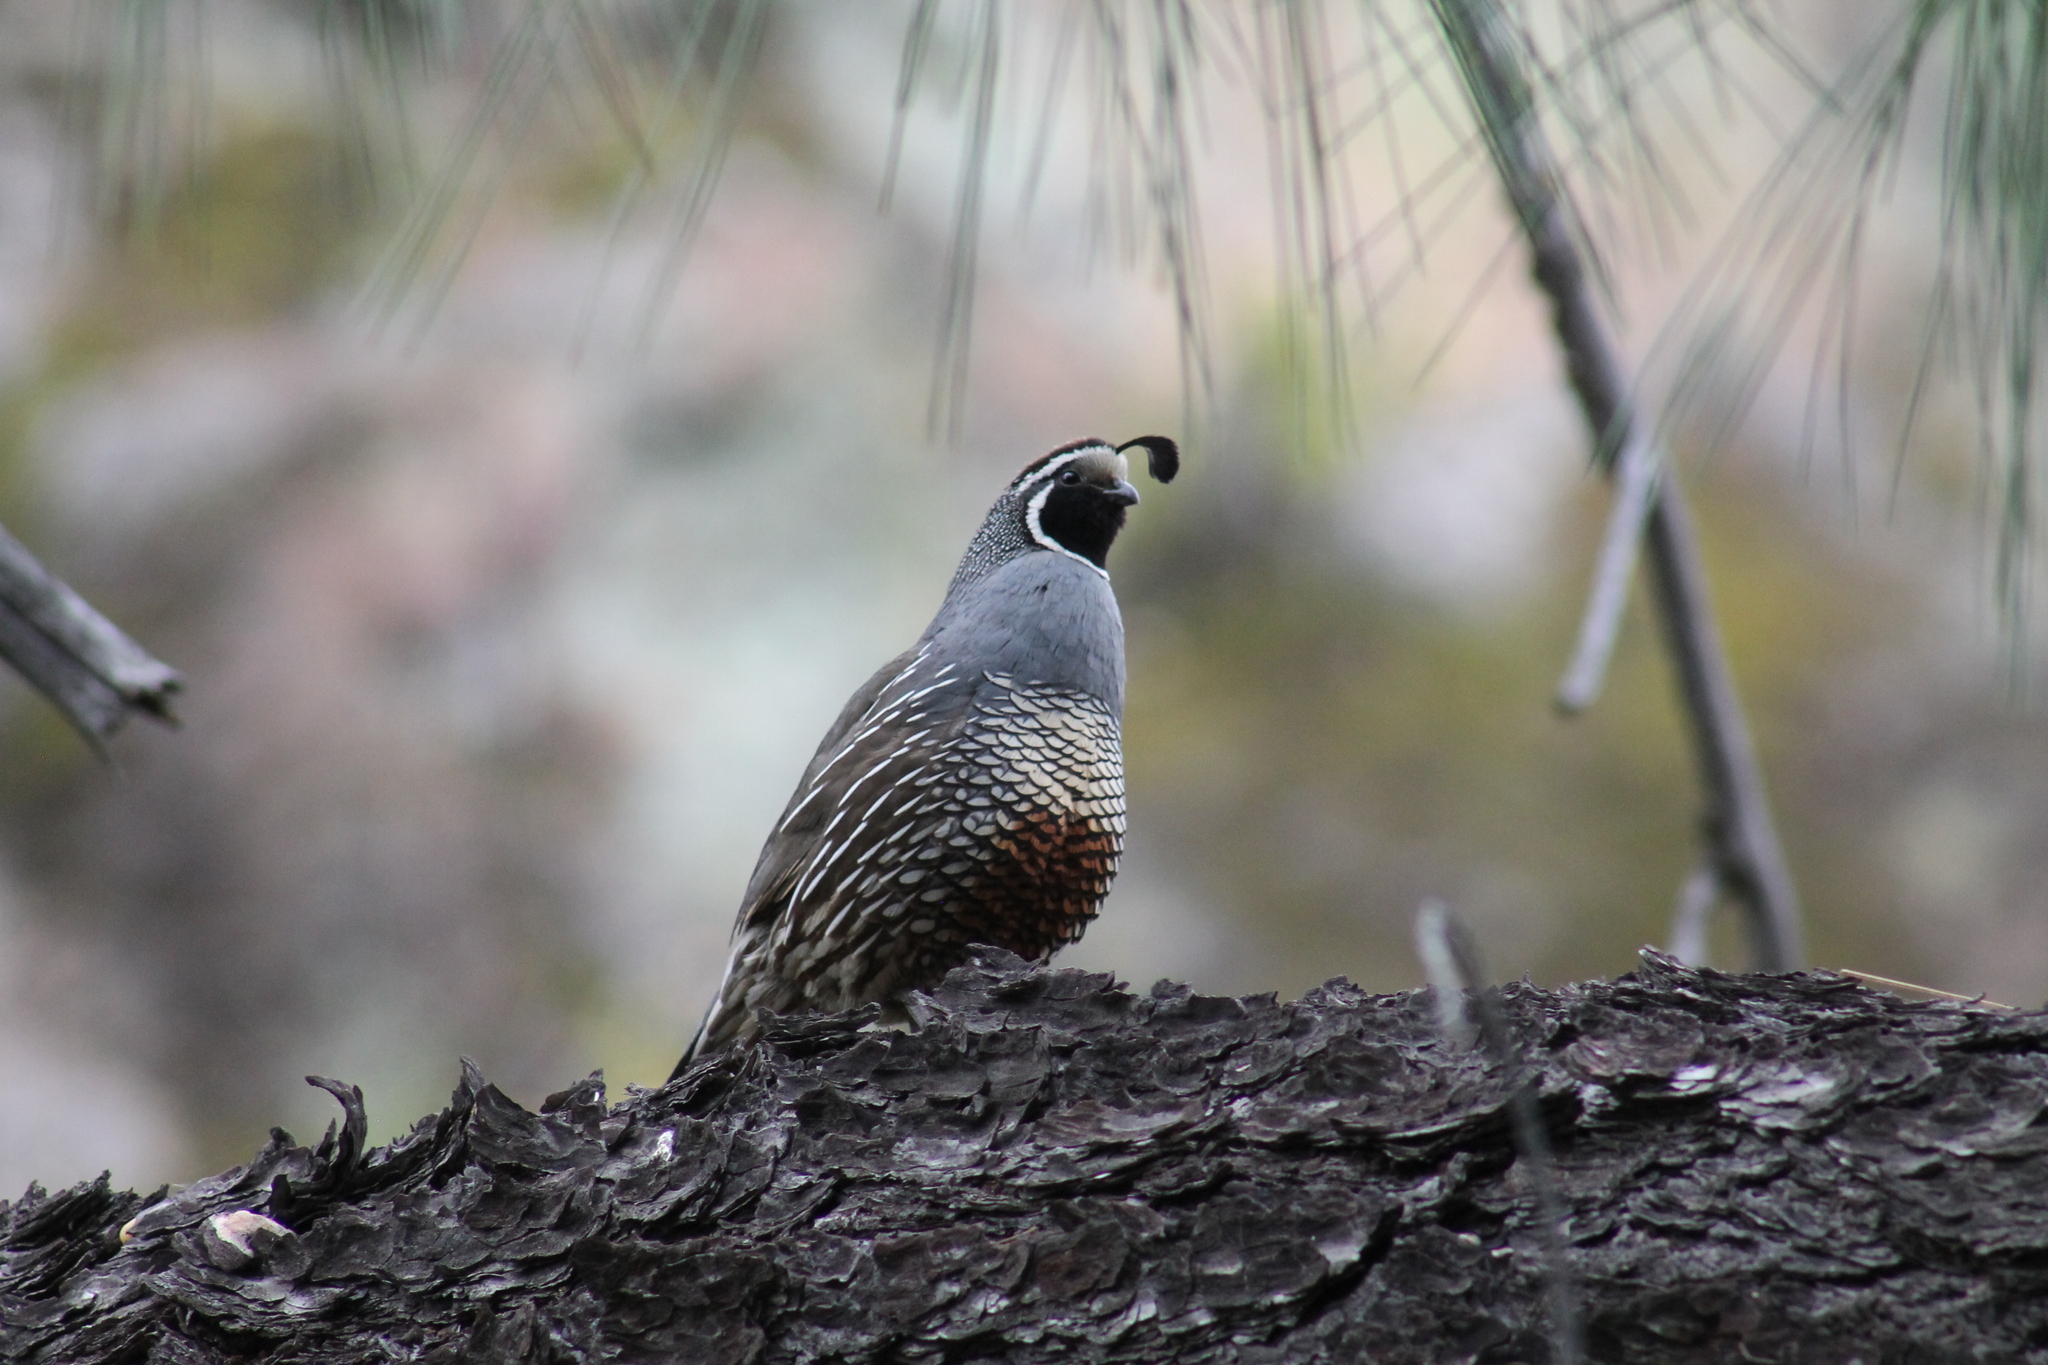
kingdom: Animalia
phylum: Chordata
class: Aves
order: Galliformes
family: Odontophoridae
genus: Callipepla
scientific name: Callipepla californica
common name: California quail
